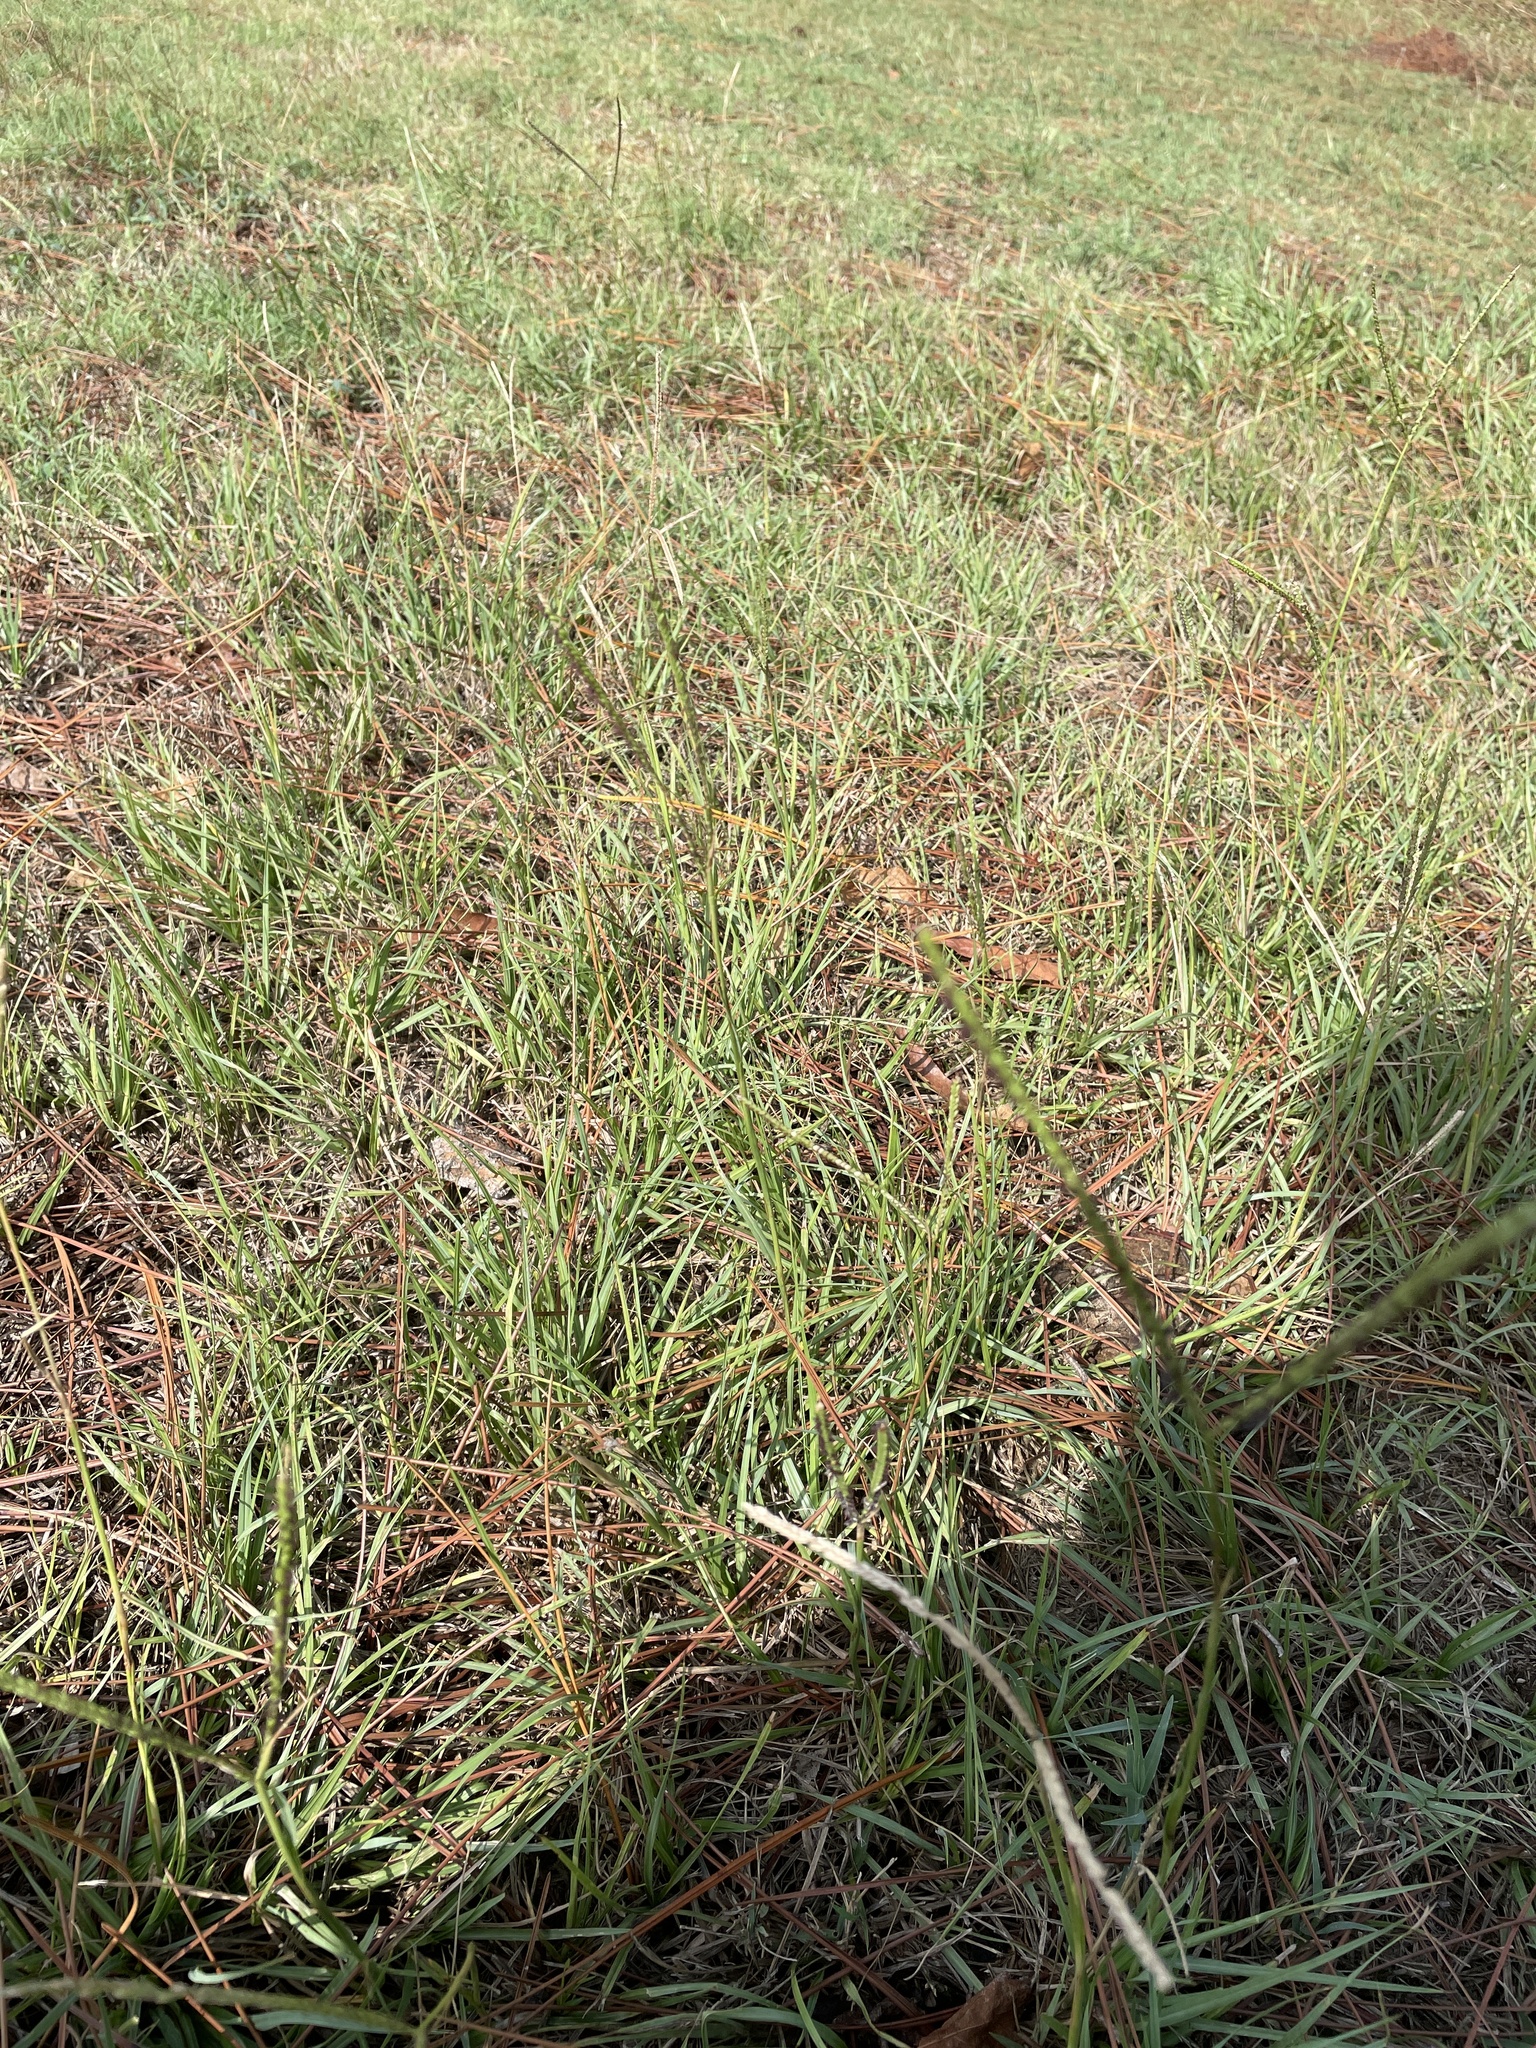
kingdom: Plantae
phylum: Tracheophyta
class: Liliopsida
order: Poales
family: Poaceae
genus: Paspalum
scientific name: Paspalum notatum
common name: Bahiagrass
